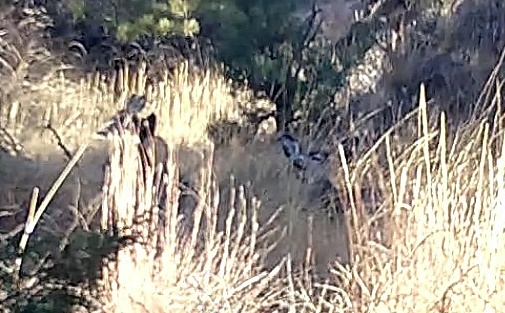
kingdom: Animalia
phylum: Chordata
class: Mammalia
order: Artiodactyla
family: Cervidae
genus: Odocoileus
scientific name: Odocoileus hemionus
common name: Mule deer
